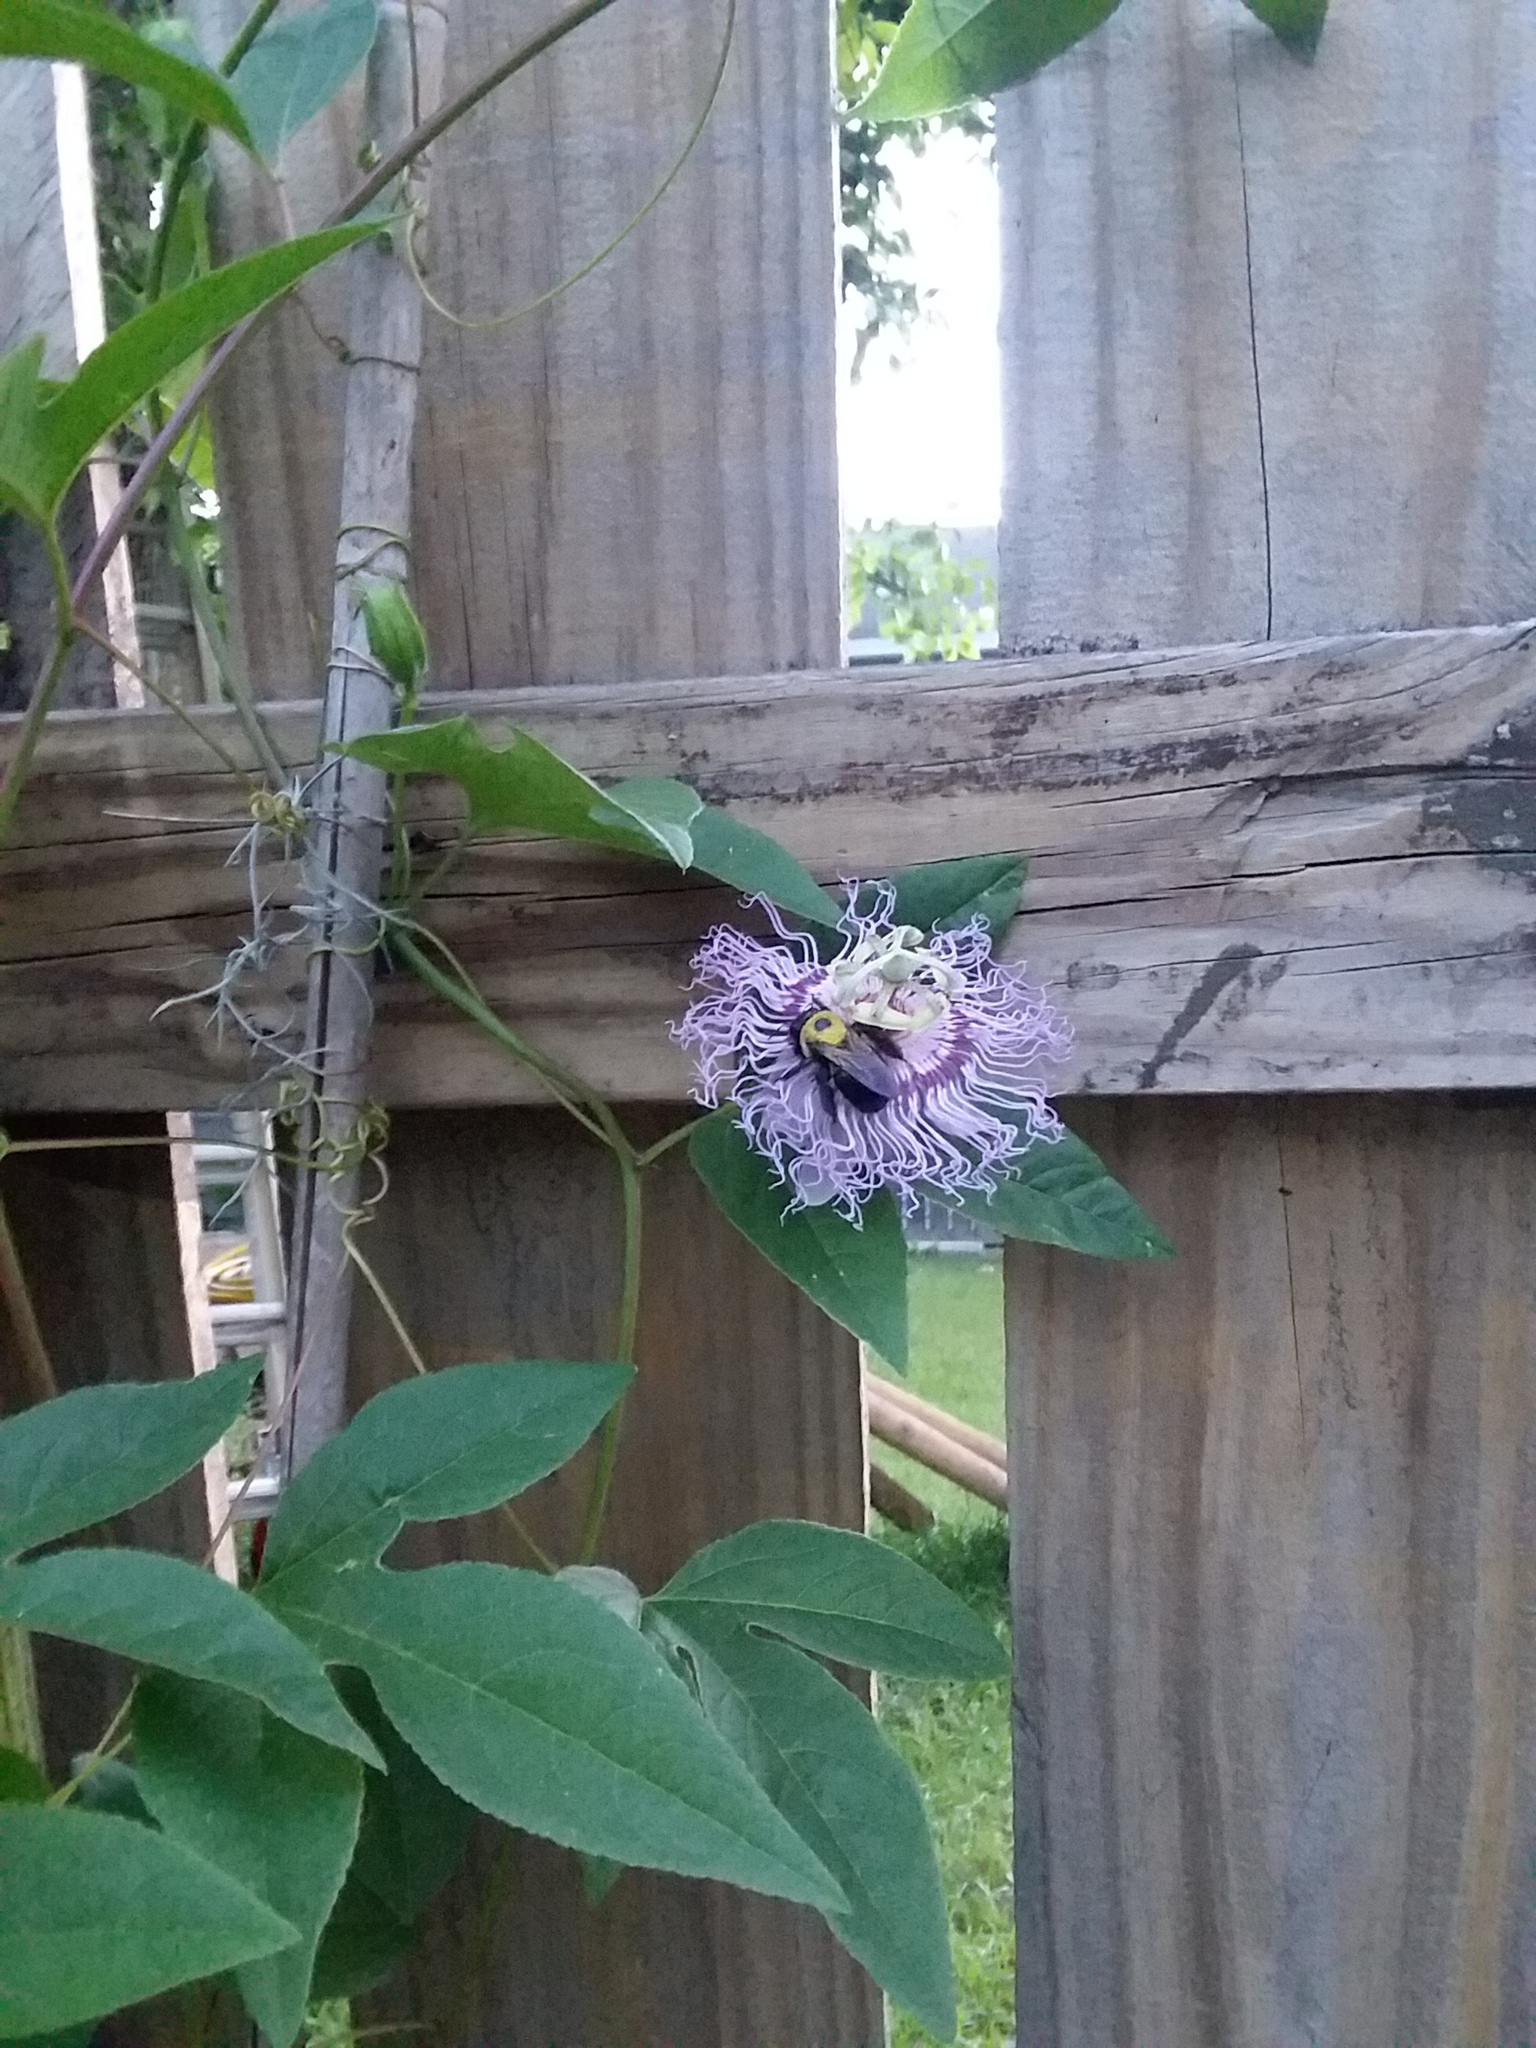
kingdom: Animalia
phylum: Arthropoda
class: Insecta
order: Hymenoptera
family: Apidae
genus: Xylocopa
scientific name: Xylocopa virginica
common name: Carpenter bee
